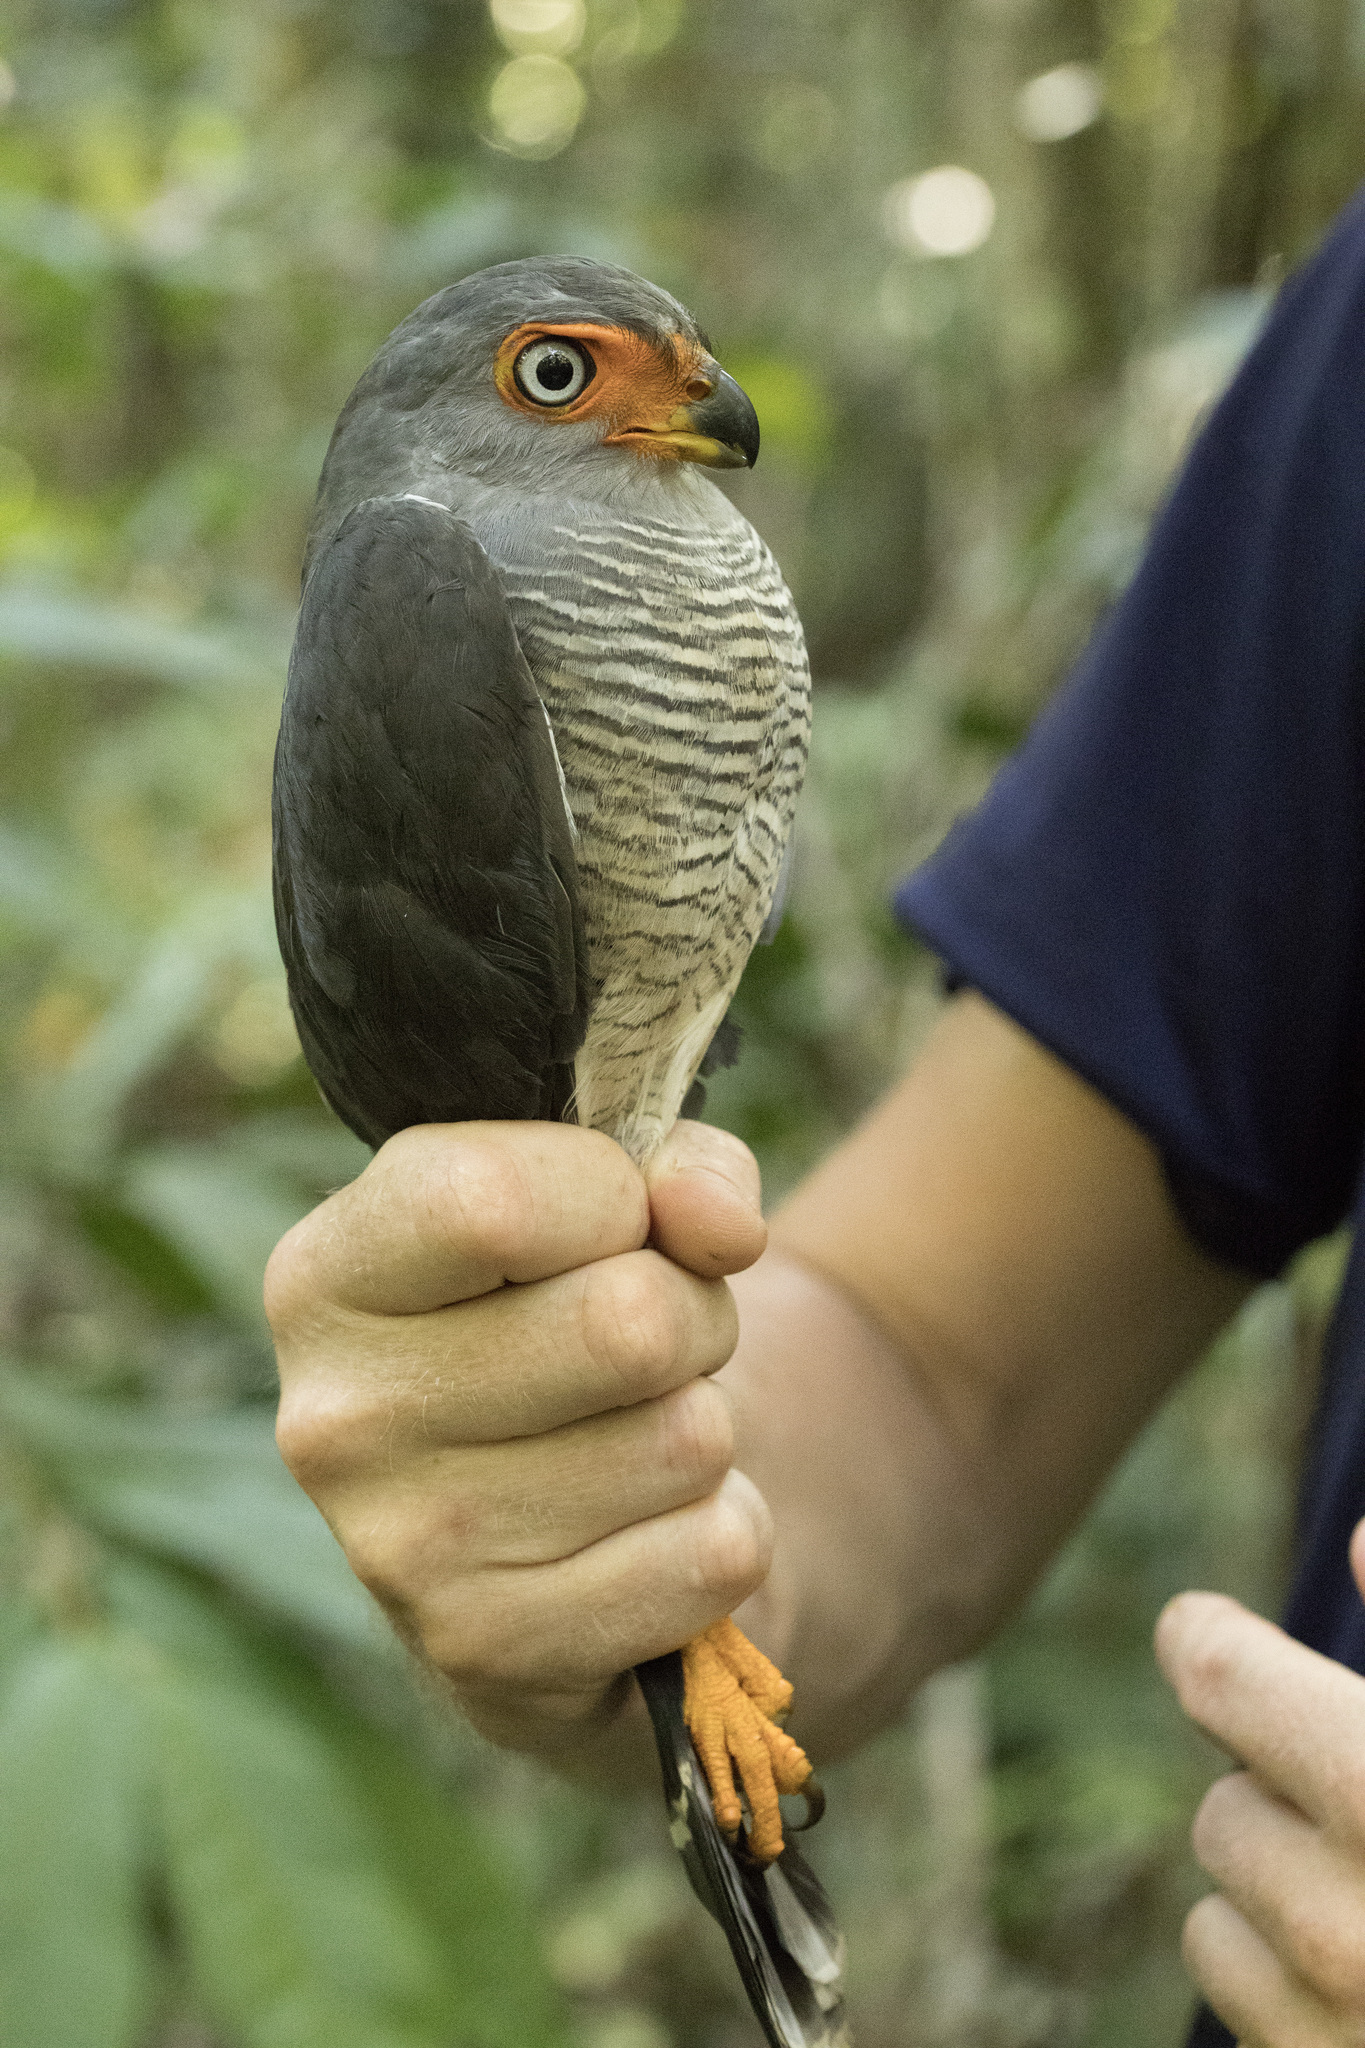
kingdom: Animalia
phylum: Chordata
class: Aves
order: Falconiformes
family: Falconidae
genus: Micrastur
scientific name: Micrastur gilvicollis
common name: Lined forest falcon
